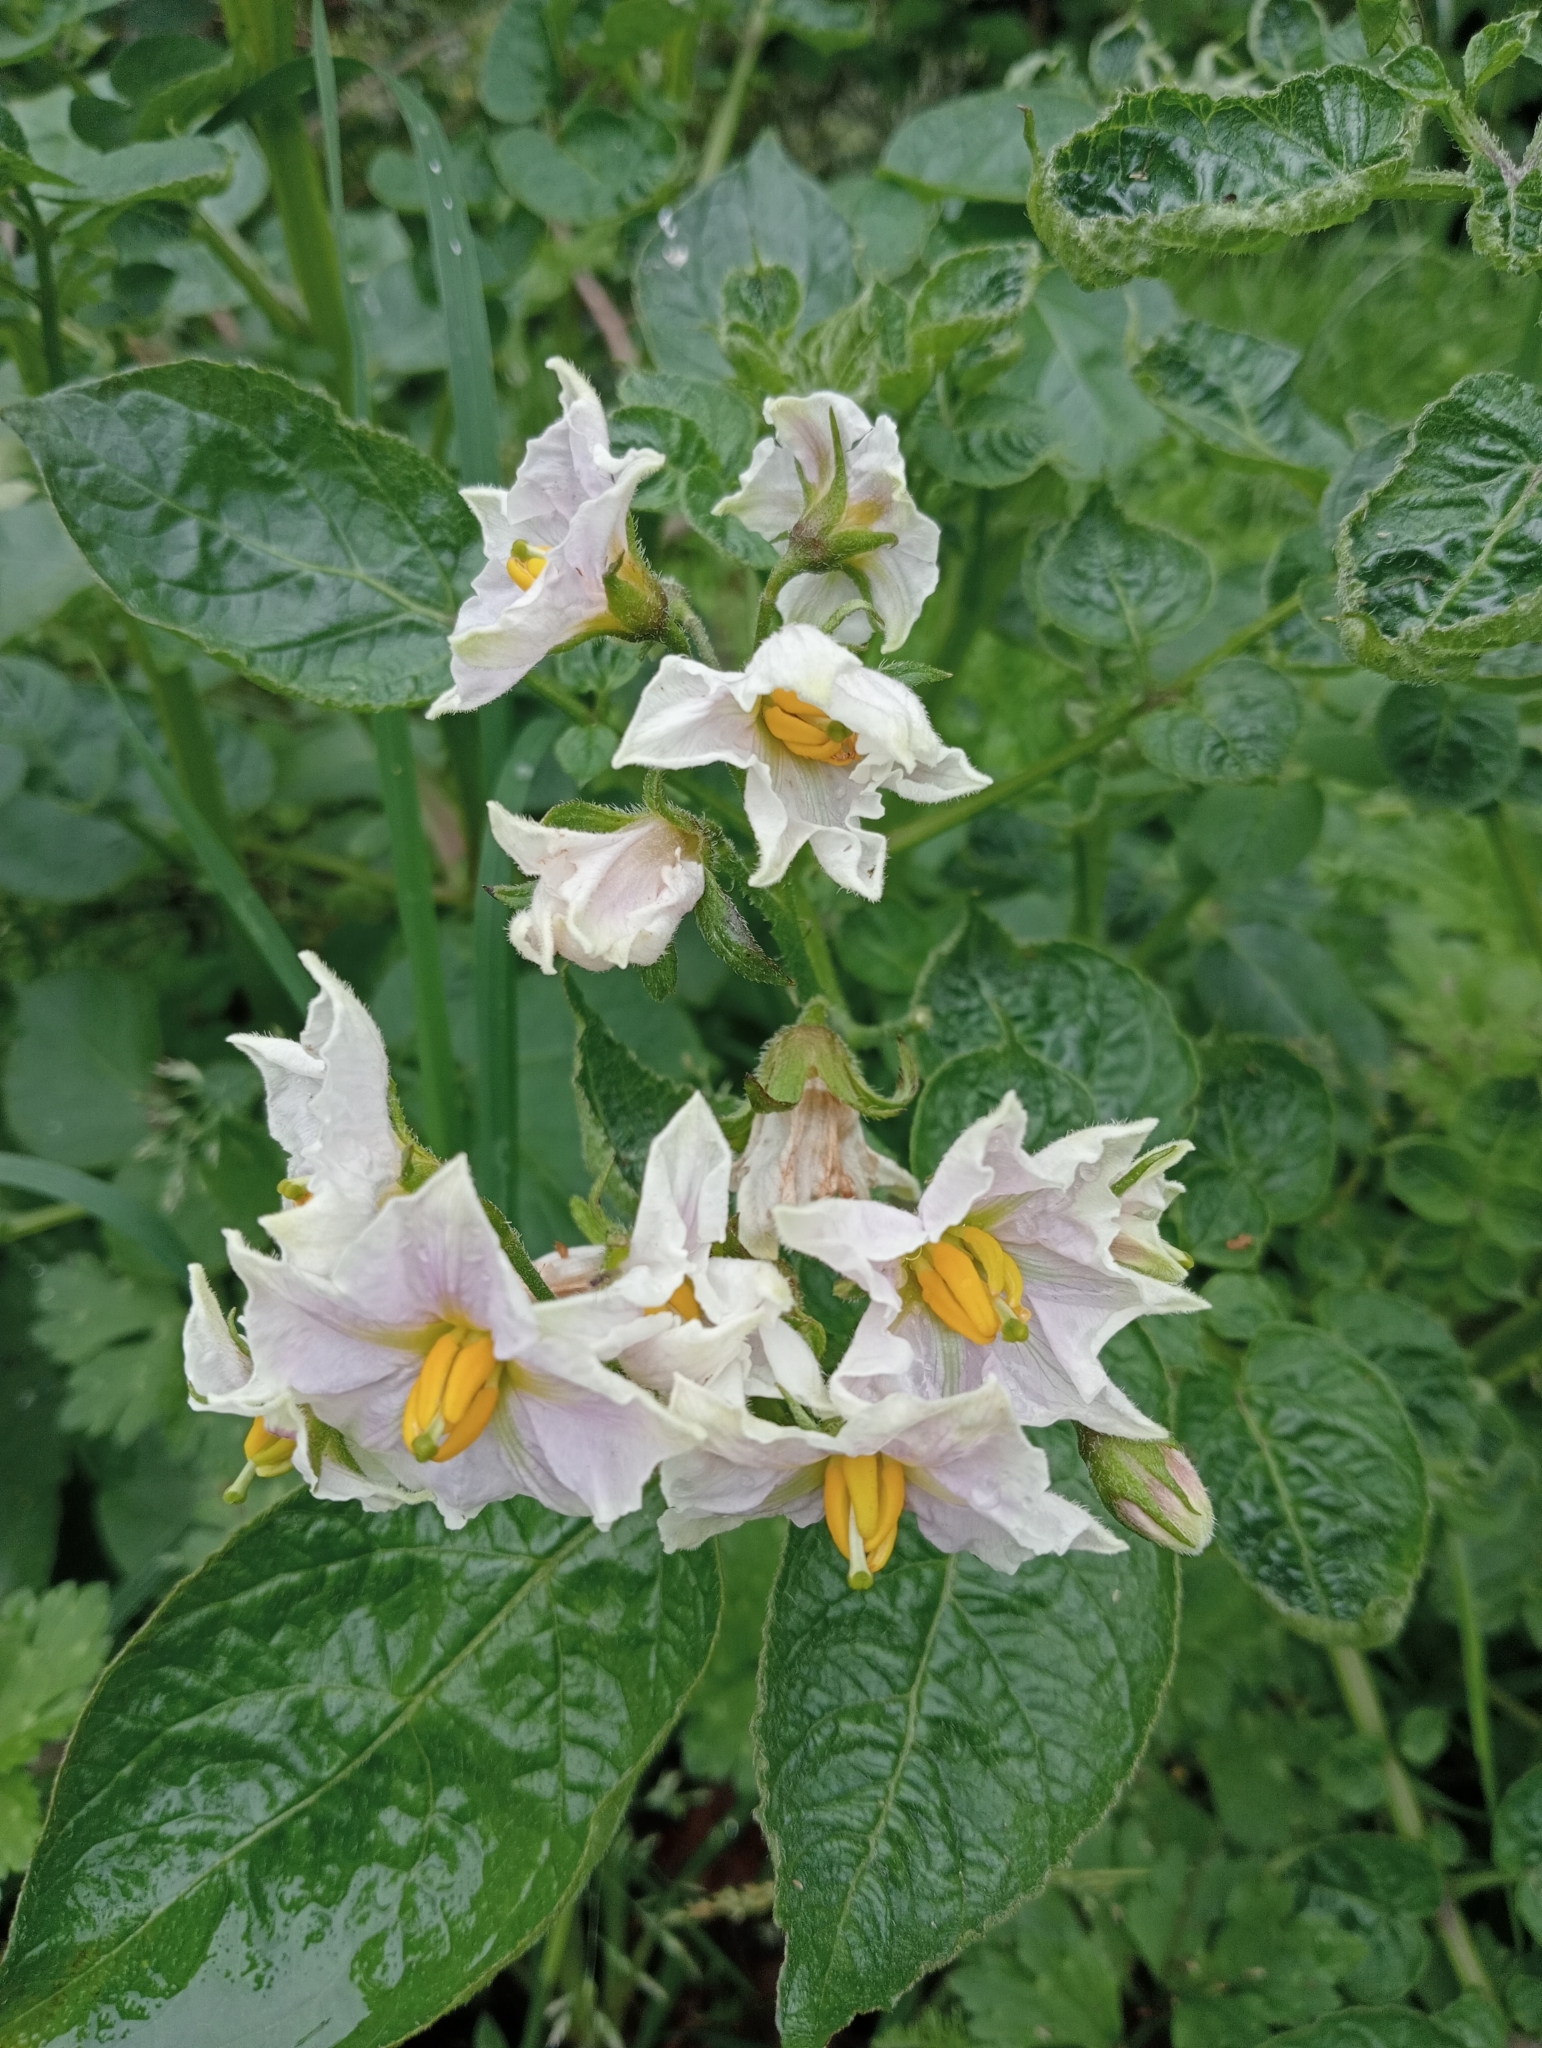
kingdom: Plantae
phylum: Tracheophyta
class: Magnoliopsida
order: Solanales
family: Solanaceae
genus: Solanum
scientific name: Solanum tuberosum
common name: Potato
